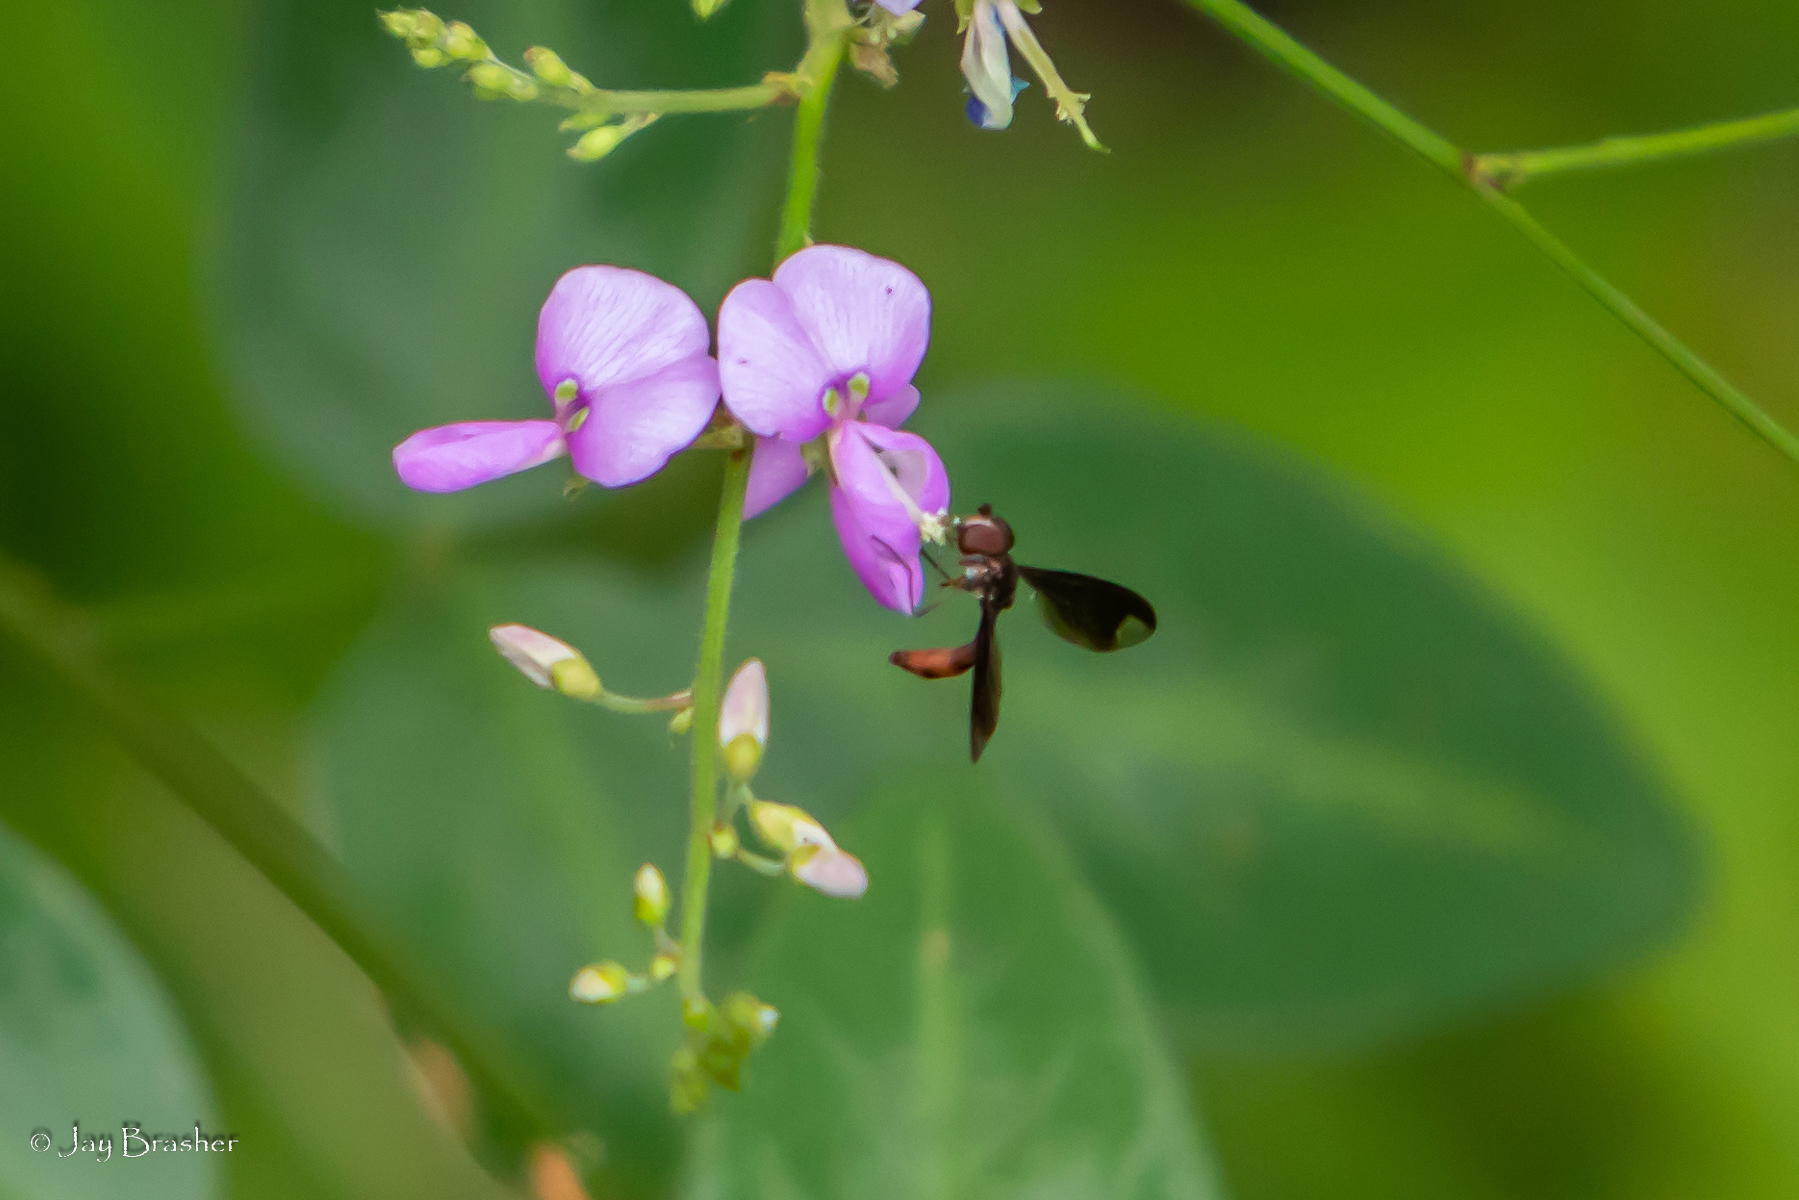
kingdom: Animalia
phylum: Arthropoda
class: Insecta
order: Diptera
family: Syrphidae
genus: Ocyptamus
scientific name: Ocyptamus fuscipennis
